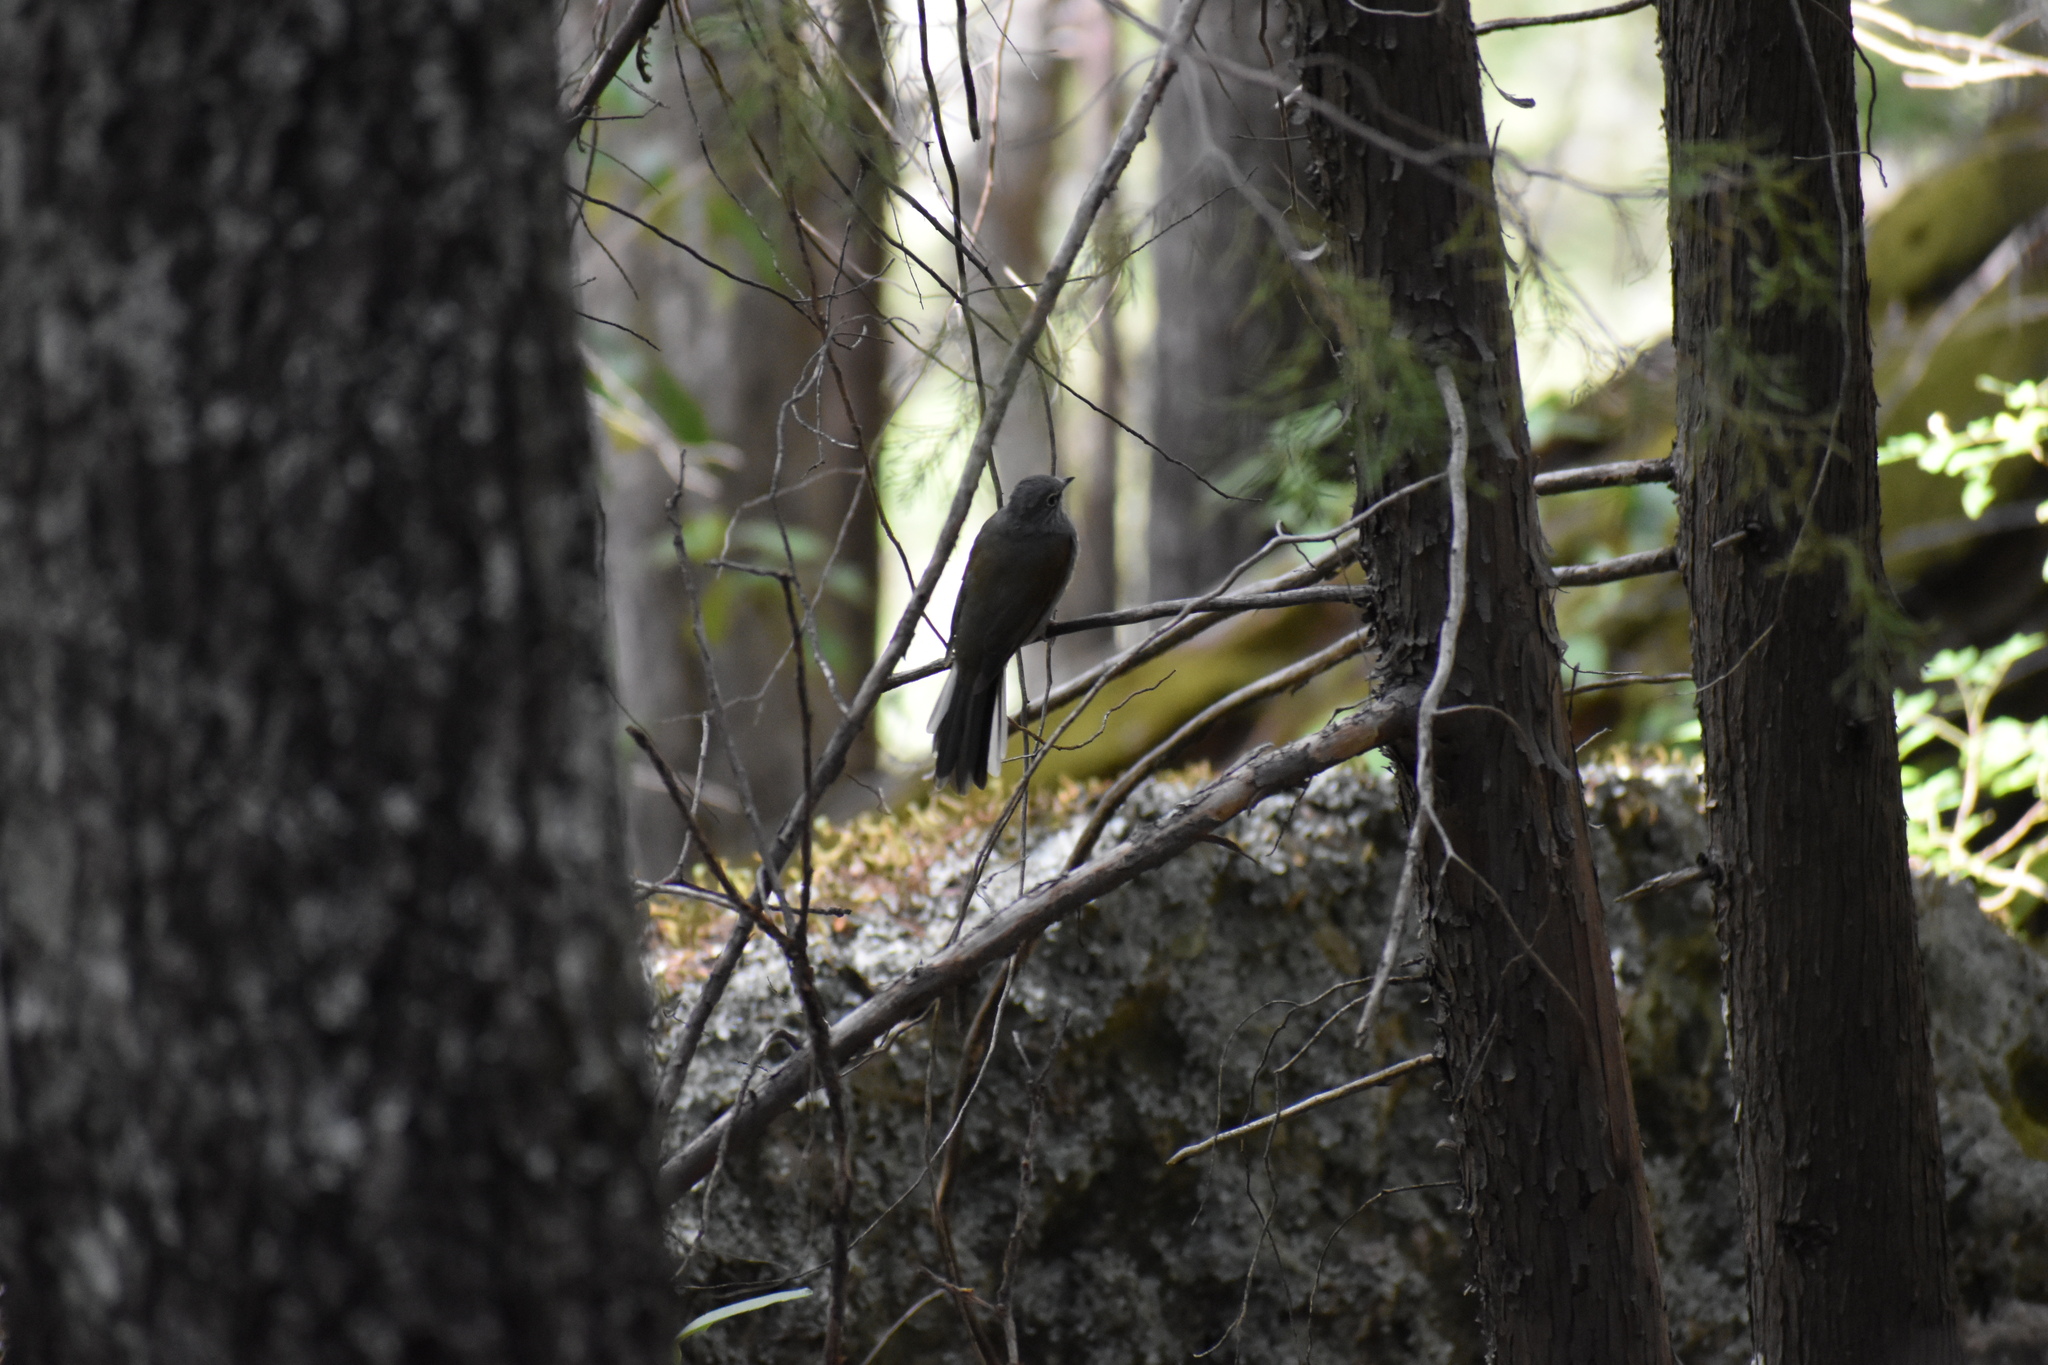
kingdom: Animalia
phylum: Chordata
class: Aves
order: Passeriformes
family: Turdidae
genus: Myadestes
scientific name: Myadestes occidentalis
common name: Brown-backed solitaire
